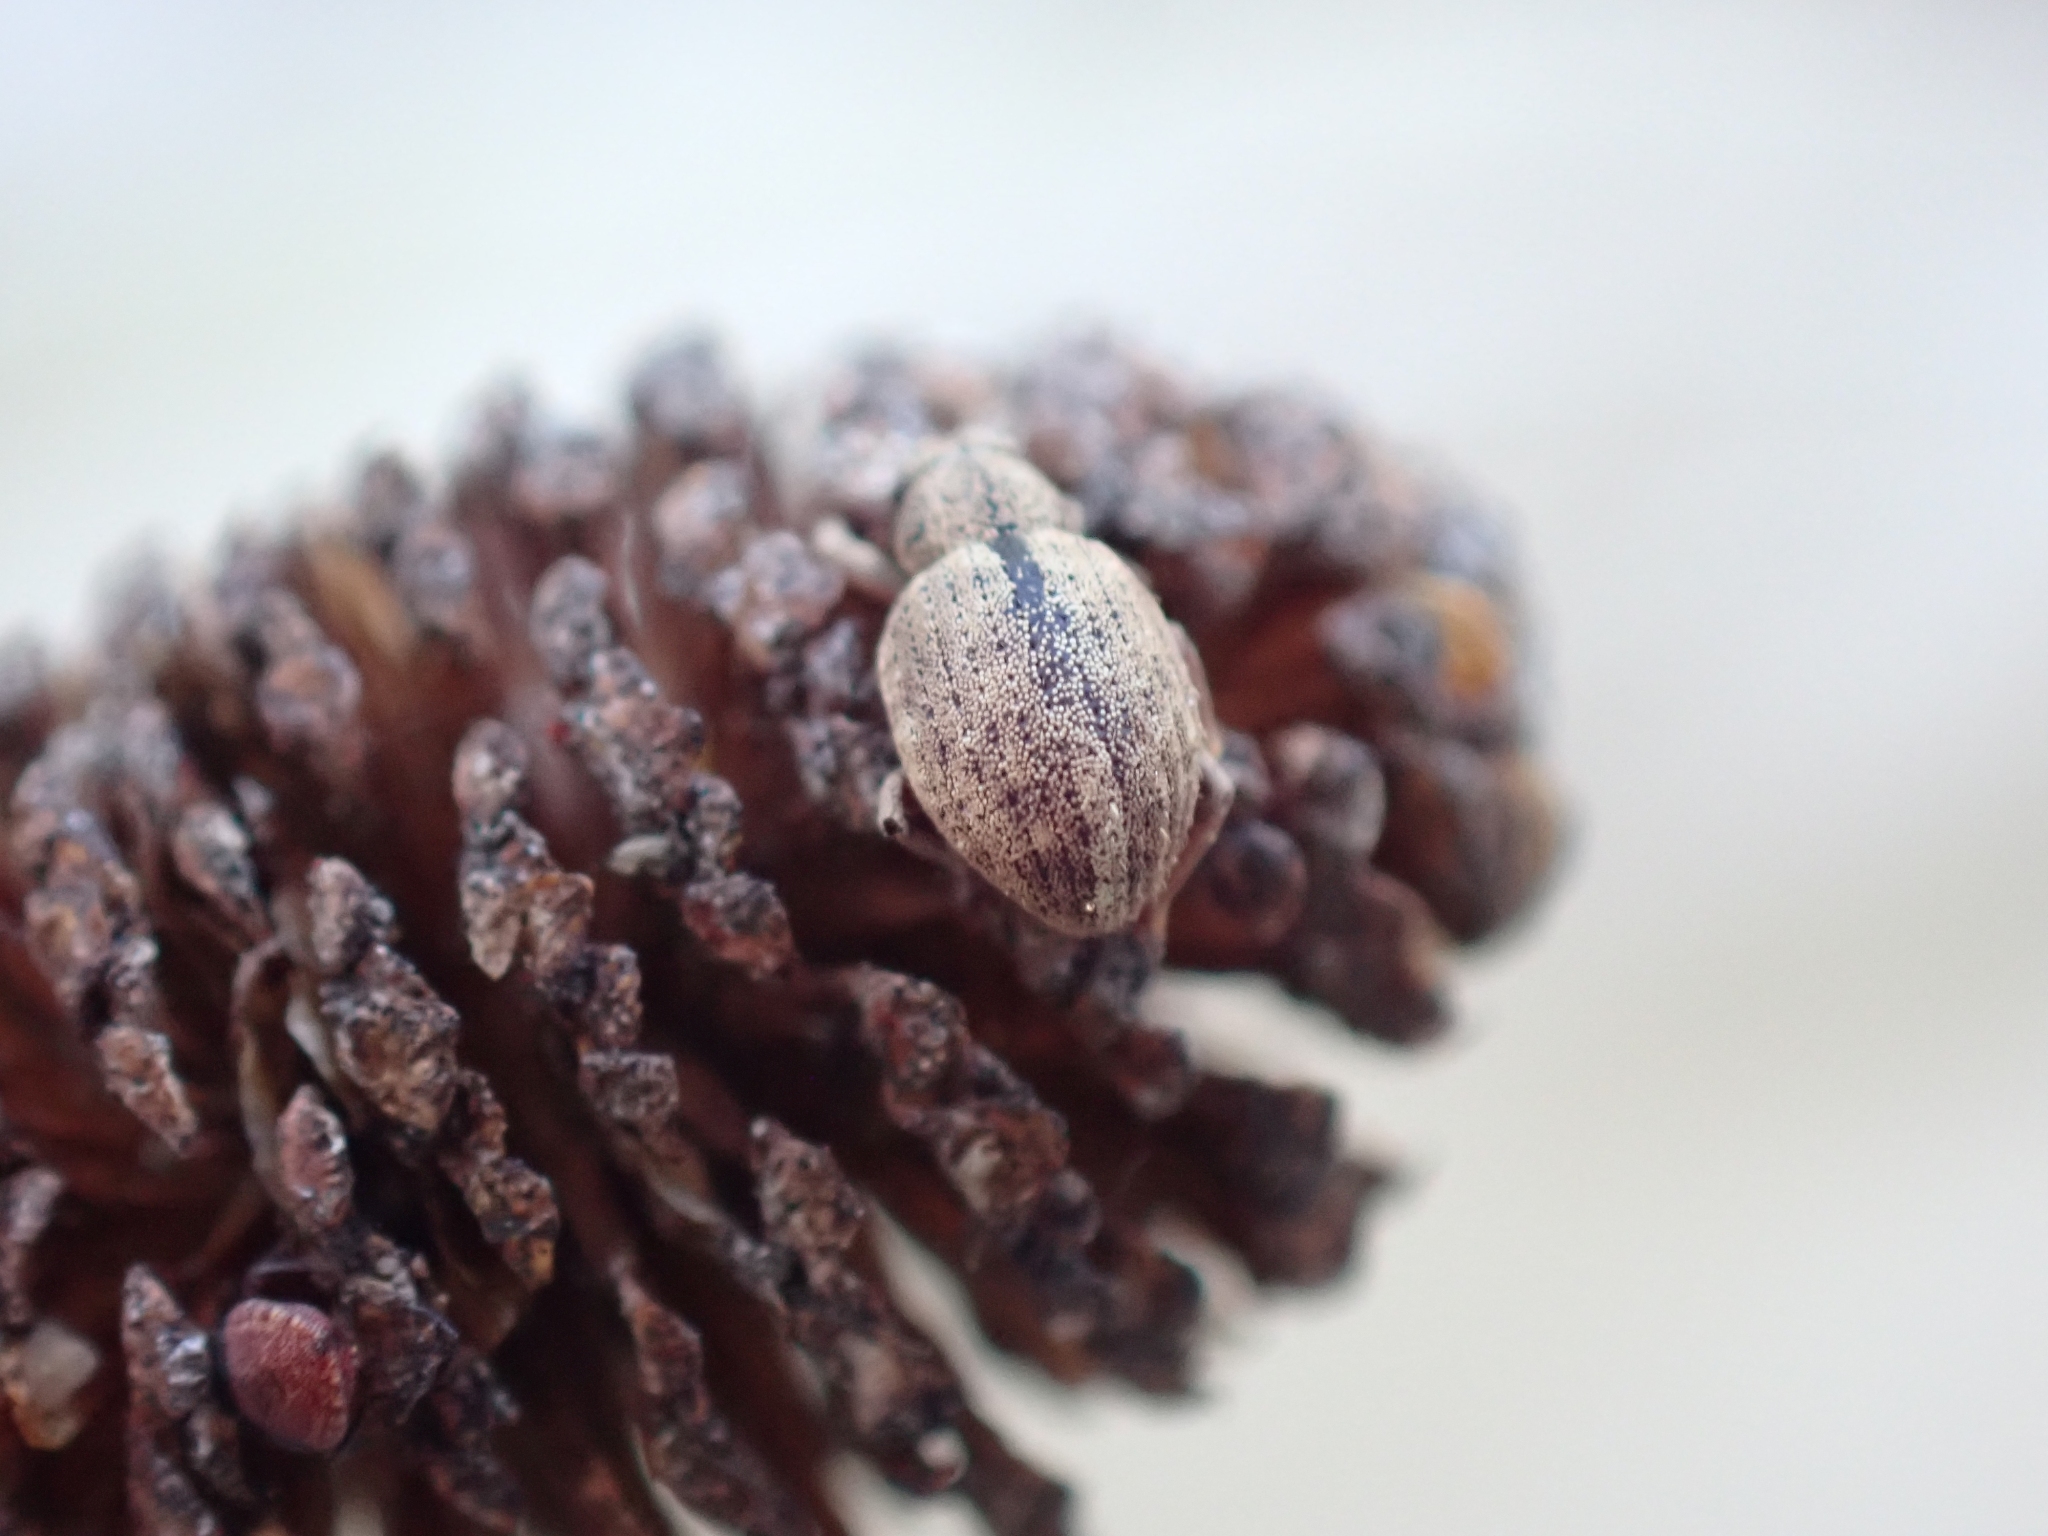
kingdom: Animalia
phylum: Arthropoda
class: Insecta
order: Coleoptera
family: Curculionidae
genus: Strophosoma
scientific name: Strophosoma melanogrammum
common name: Weevil
